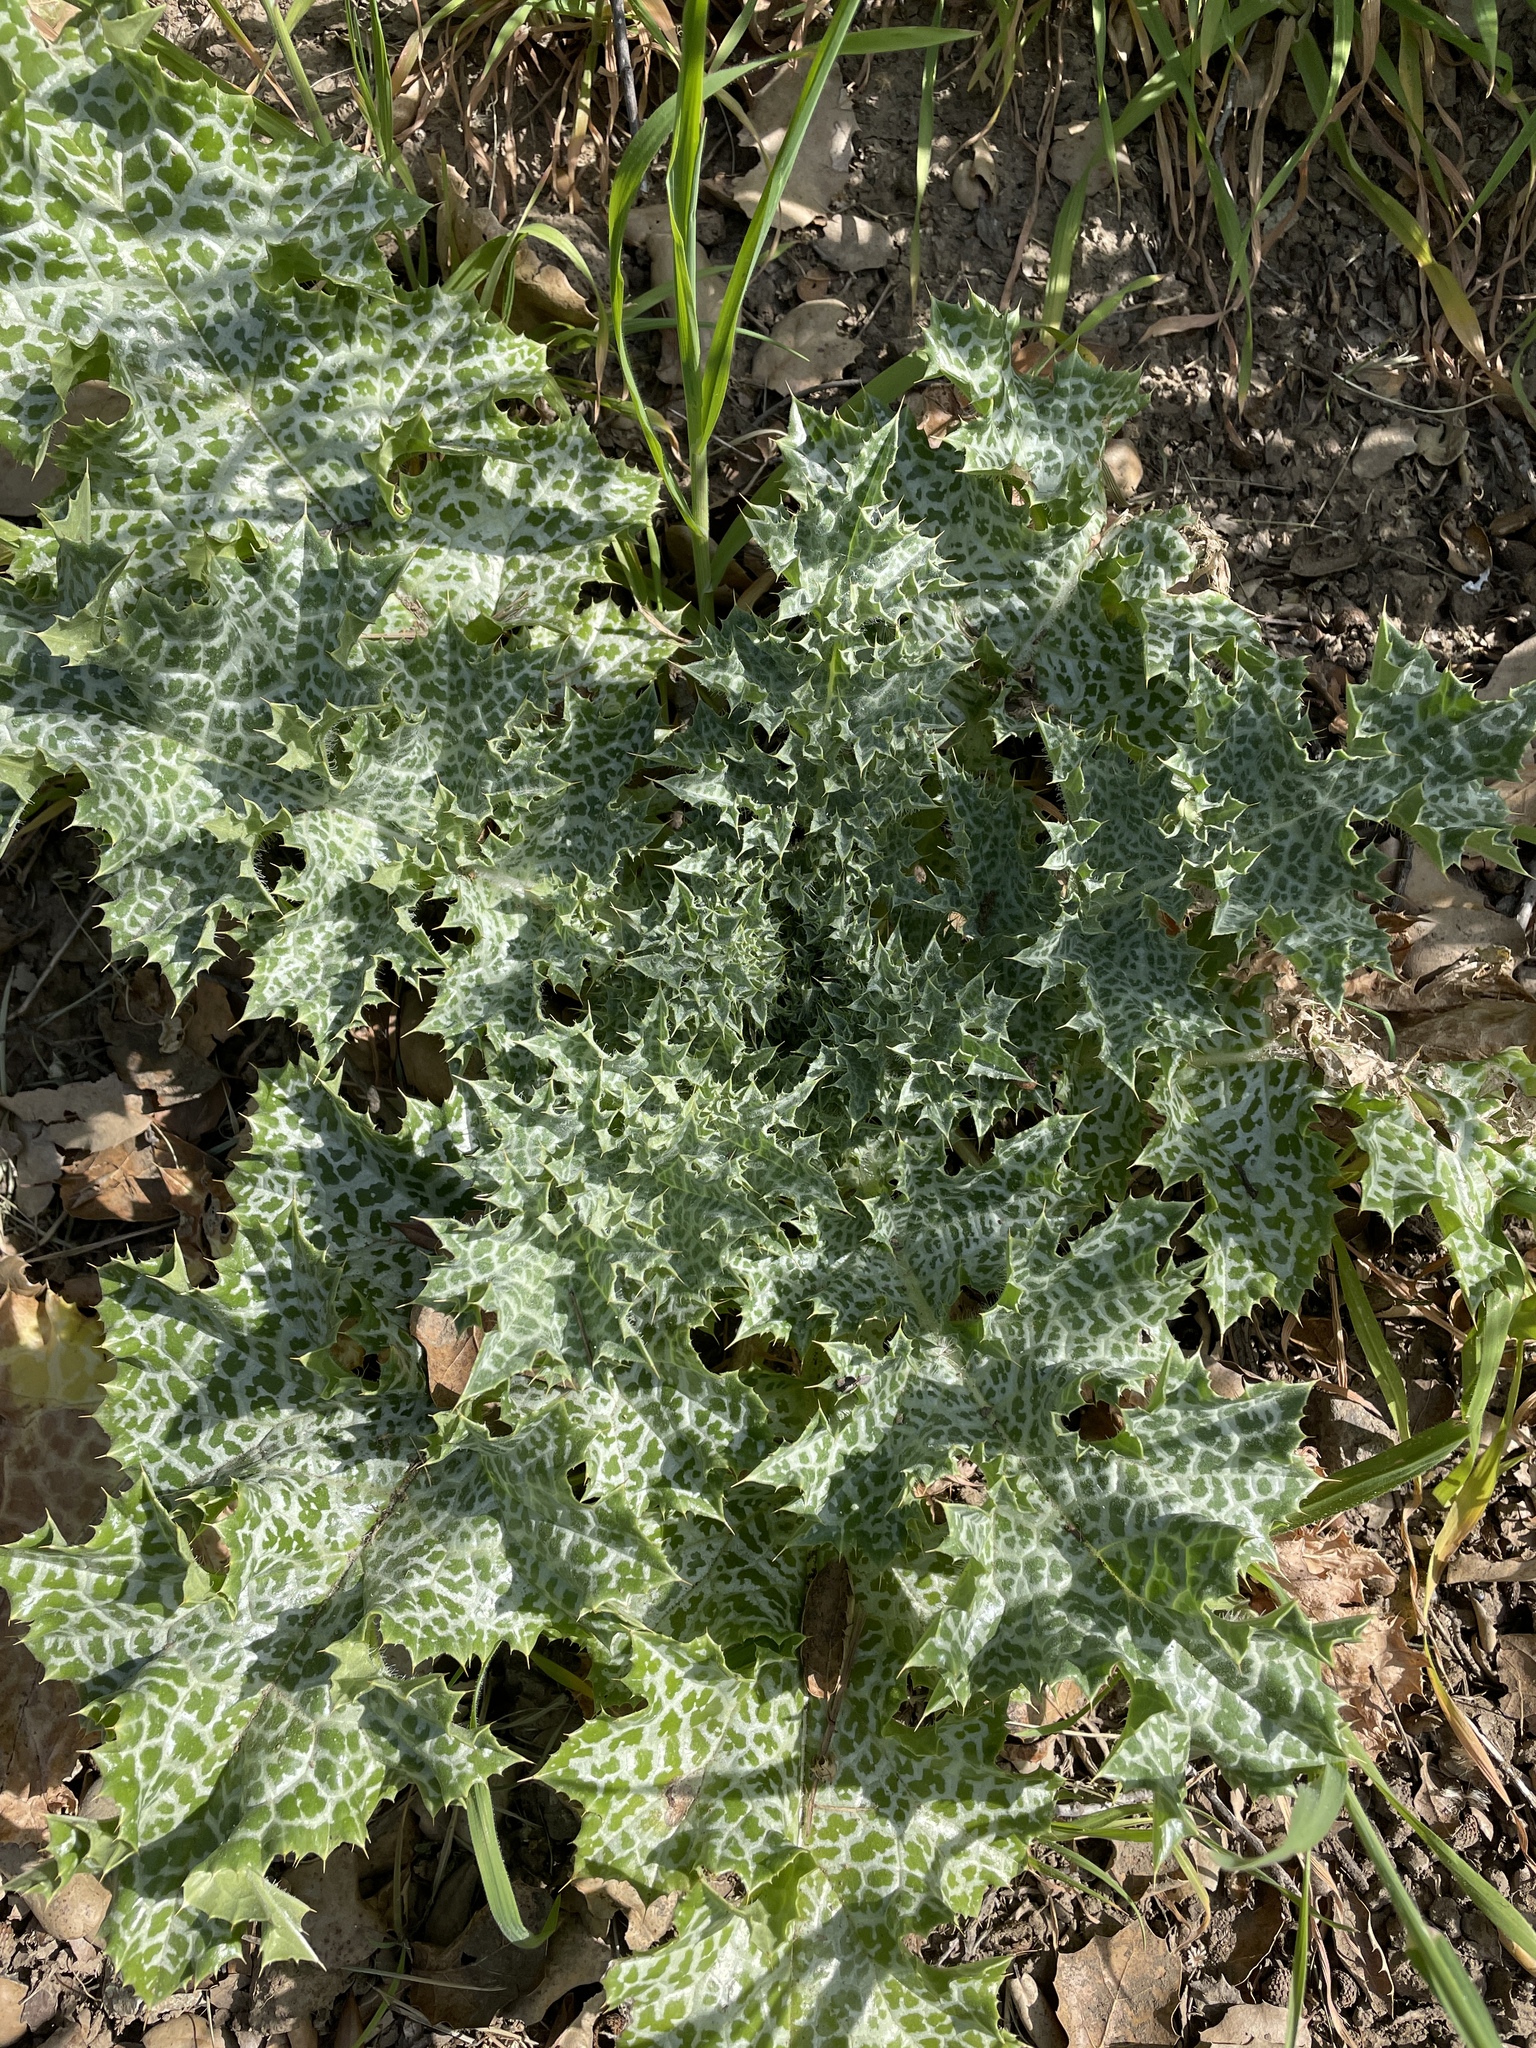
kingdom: Plantae
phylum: Tracheophyta
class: Magnoliopsida
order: Asterales
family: Asteraceae
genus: Silybum
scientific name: Silybum marianum
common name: Milk thistle
